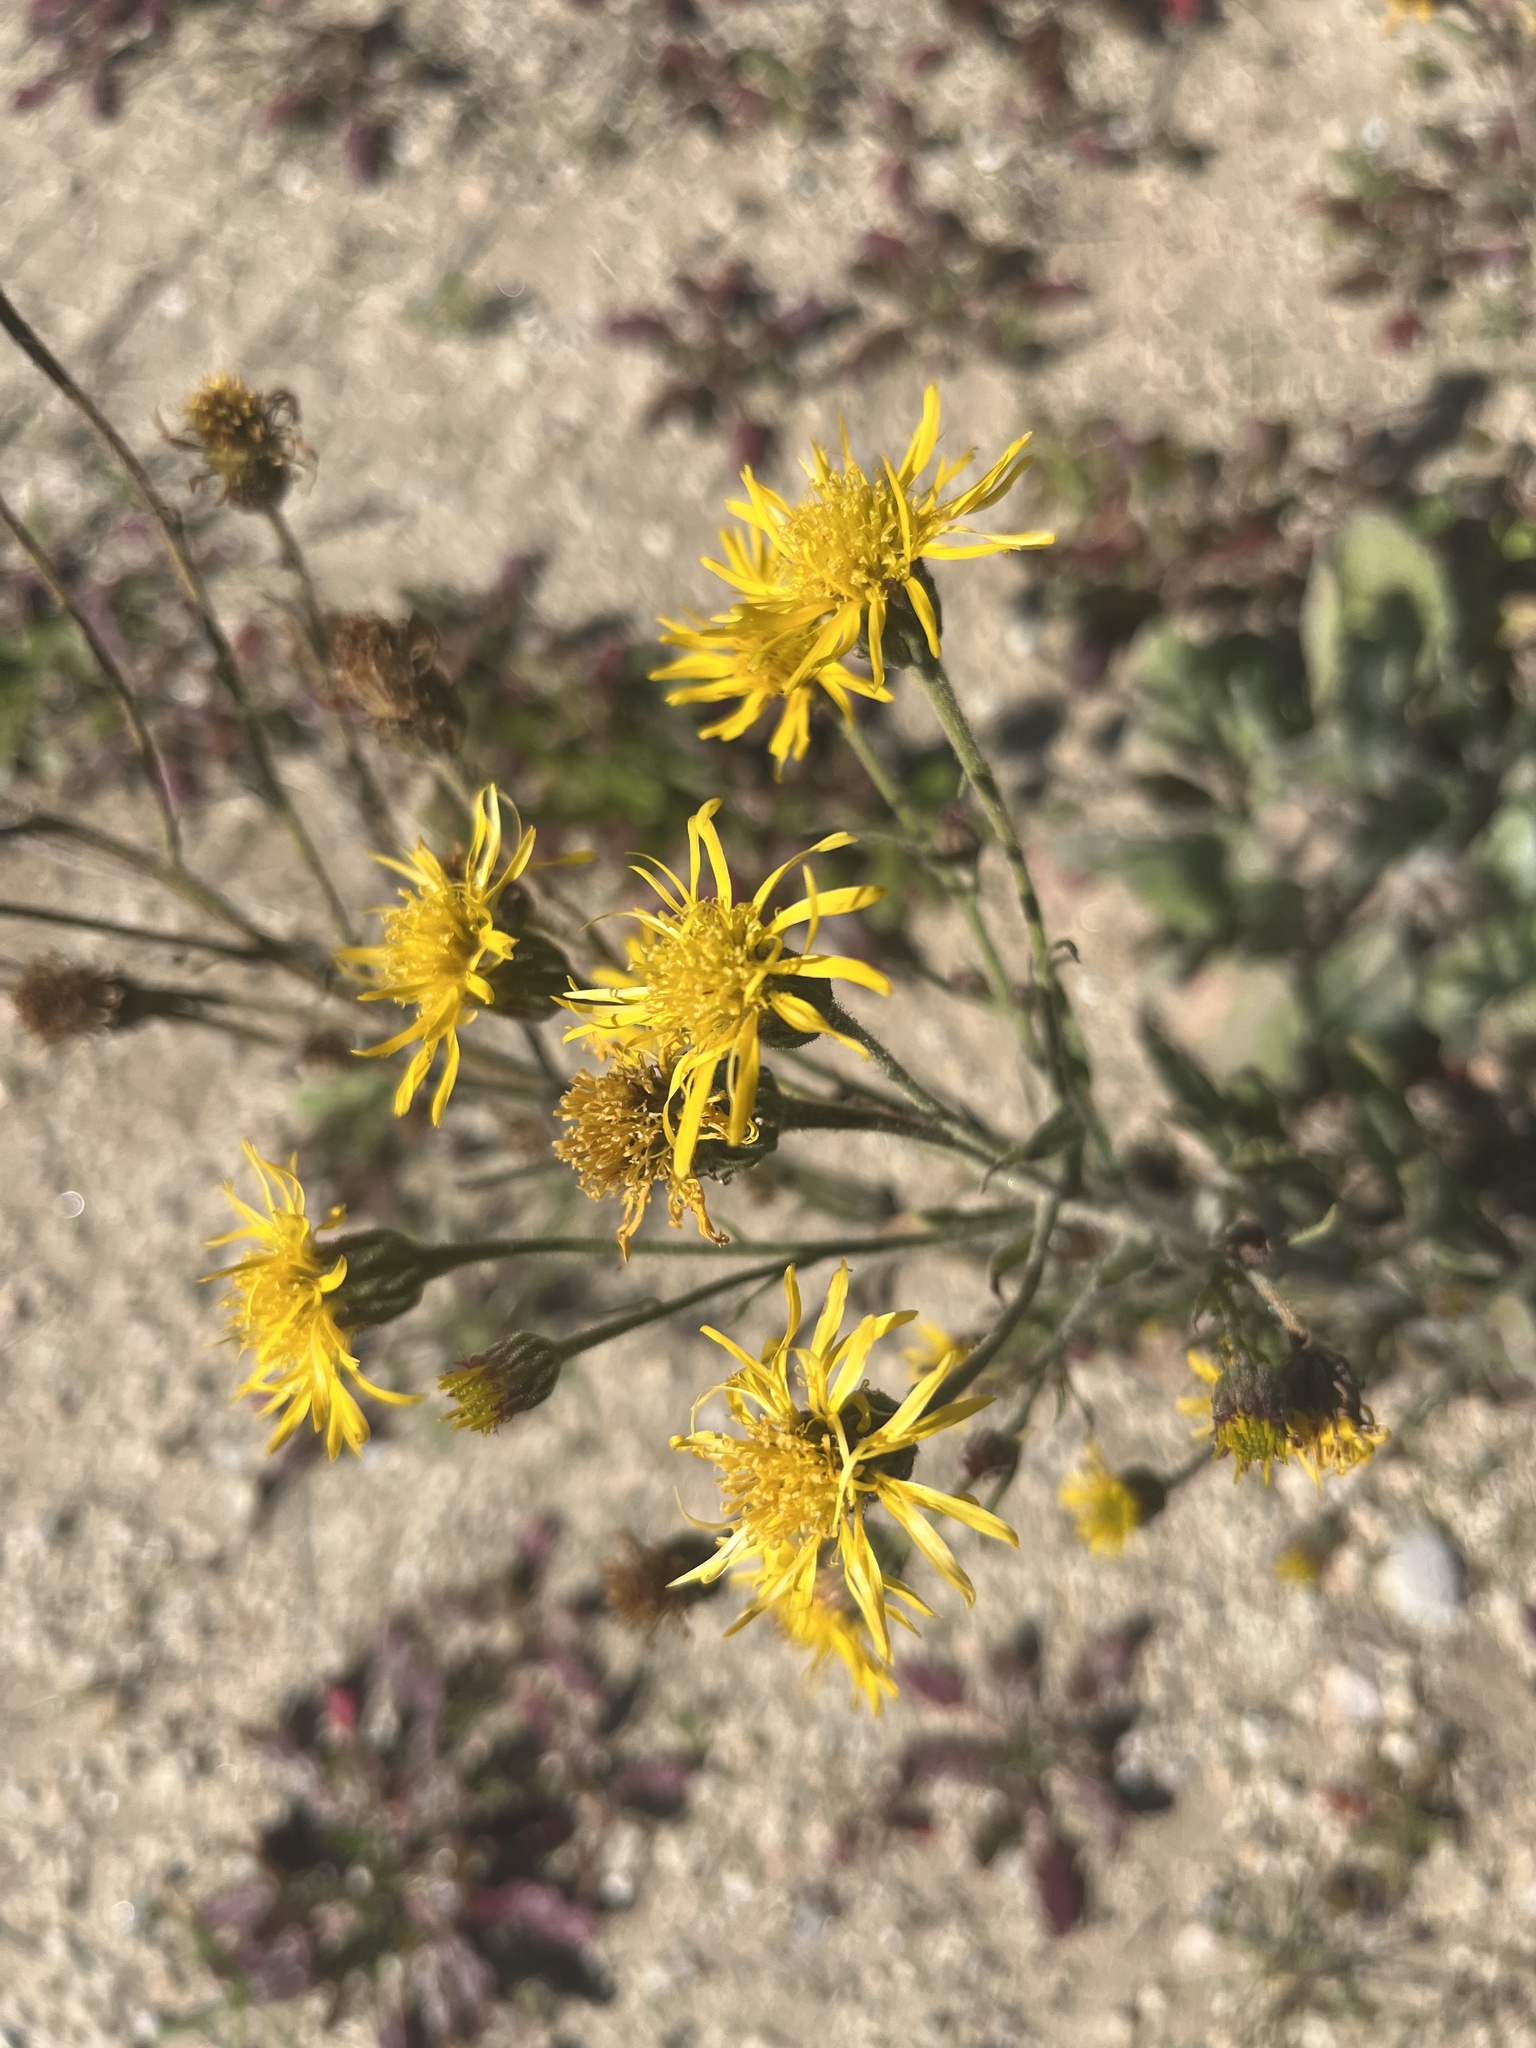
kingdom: Plantae
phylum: Tracheophyta
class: Magnoliopsida
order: Asterales
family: Asteraceae
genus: Heterotheca
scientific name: Heterotheca grandiflora
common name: Telegraphweed
